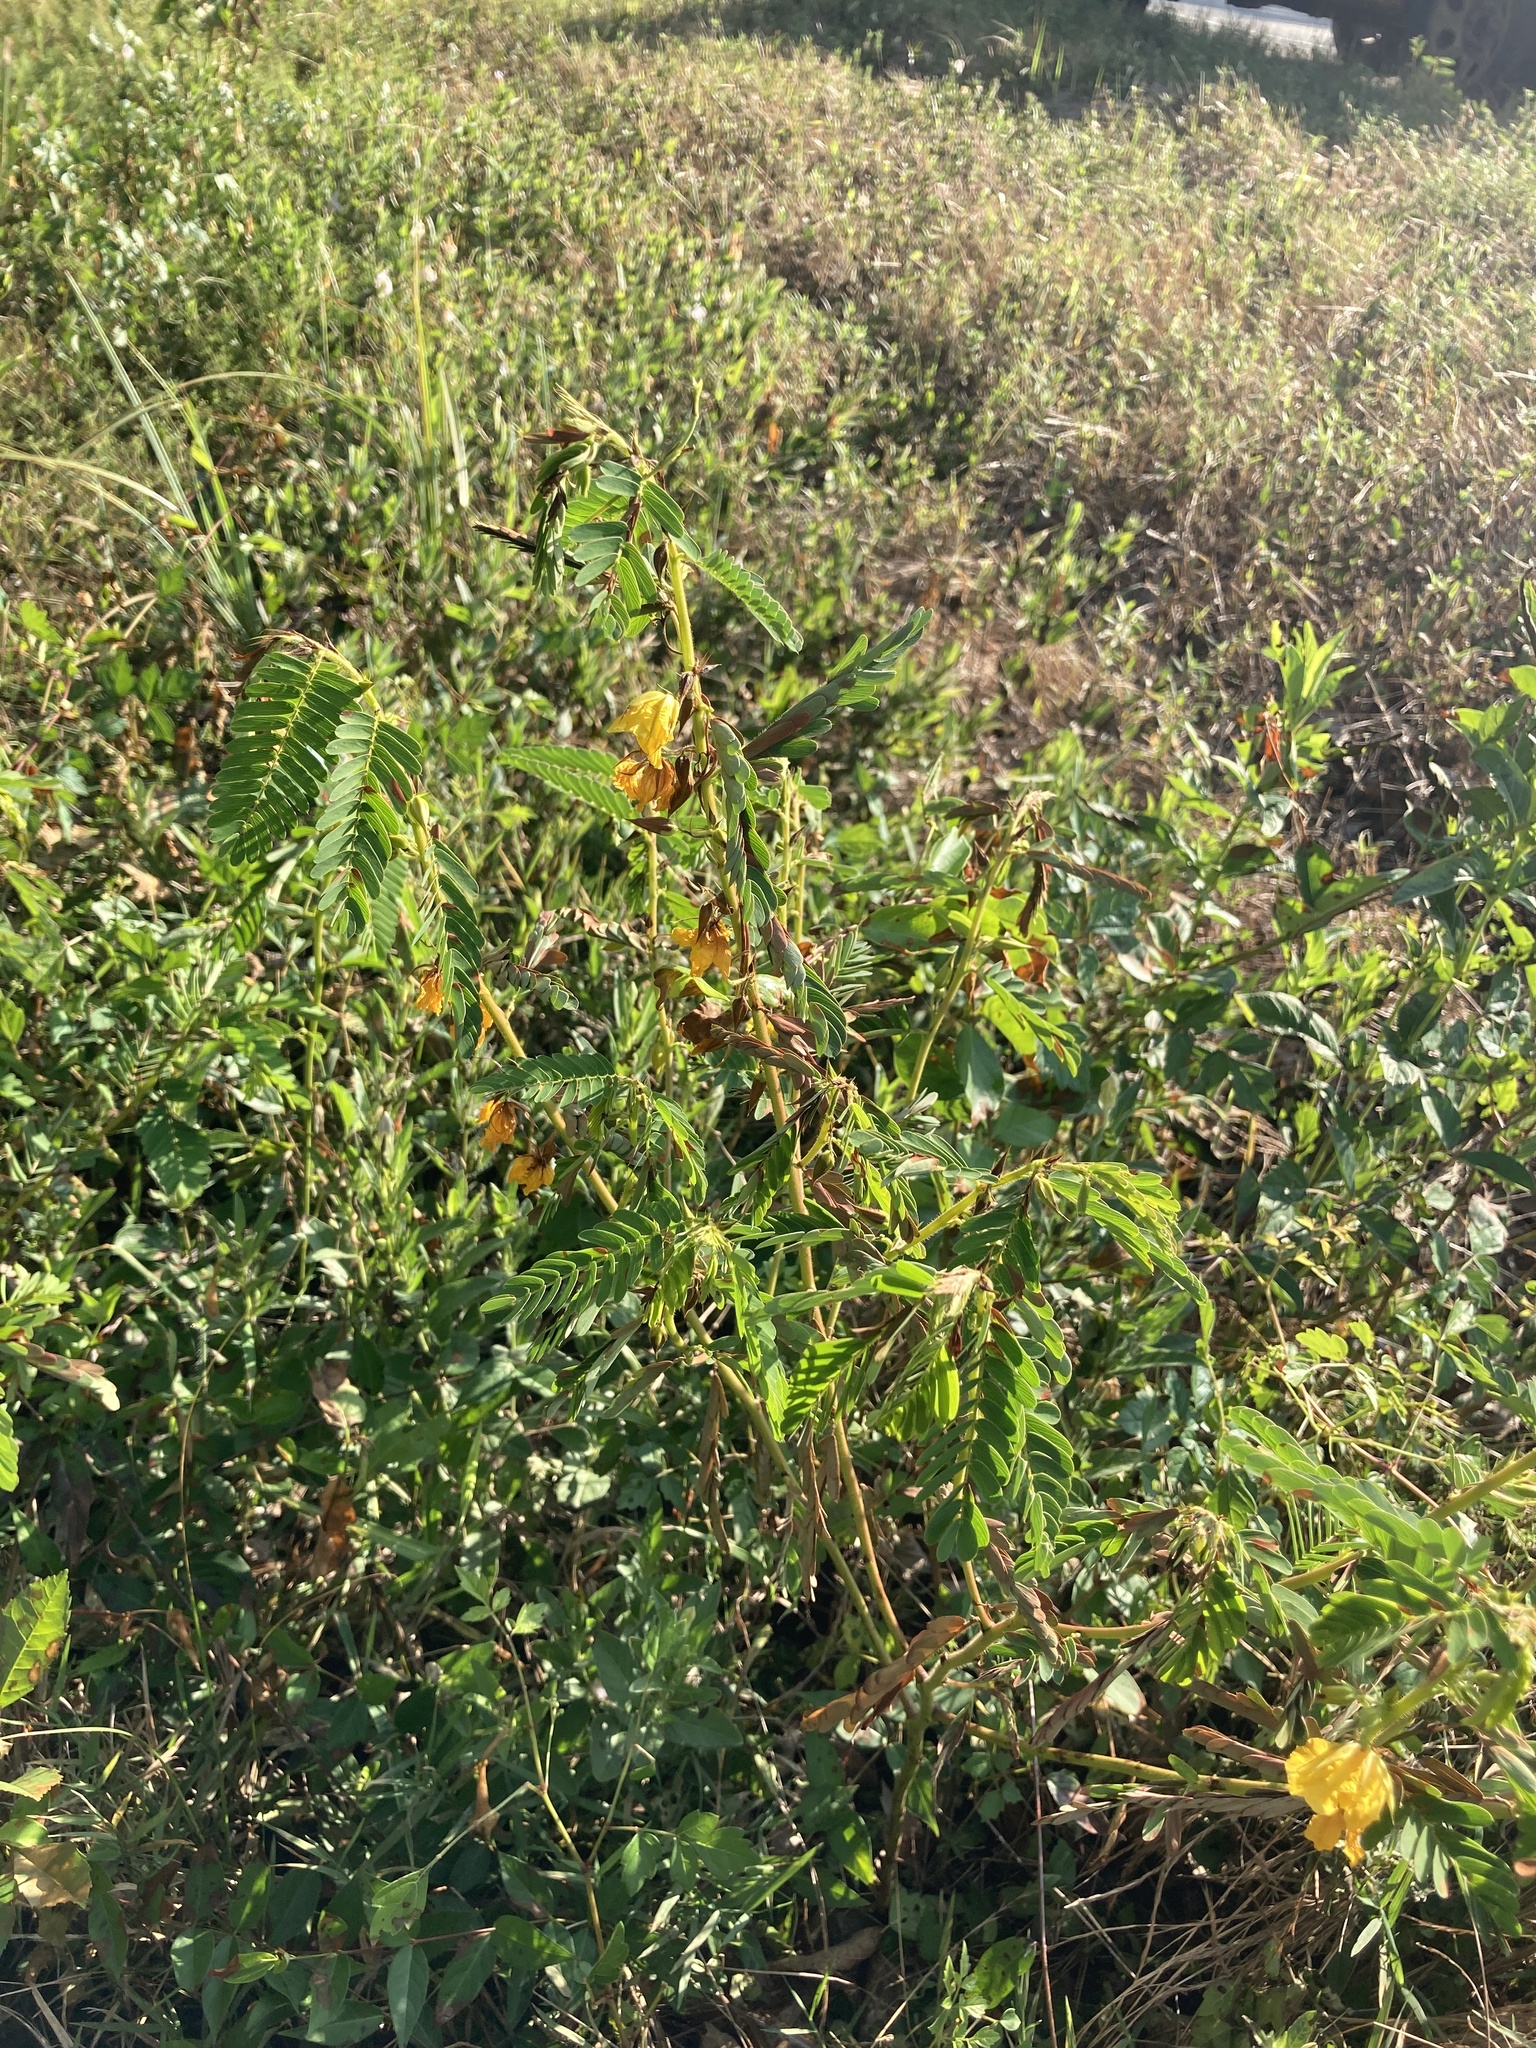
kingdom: Plantae
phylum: Tracheophyta
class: Magnoliopsida
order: Fabales
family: Fabaceae
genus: Chamaecrista
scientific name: Chamaecrista fasciculata
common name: Golden cassia
